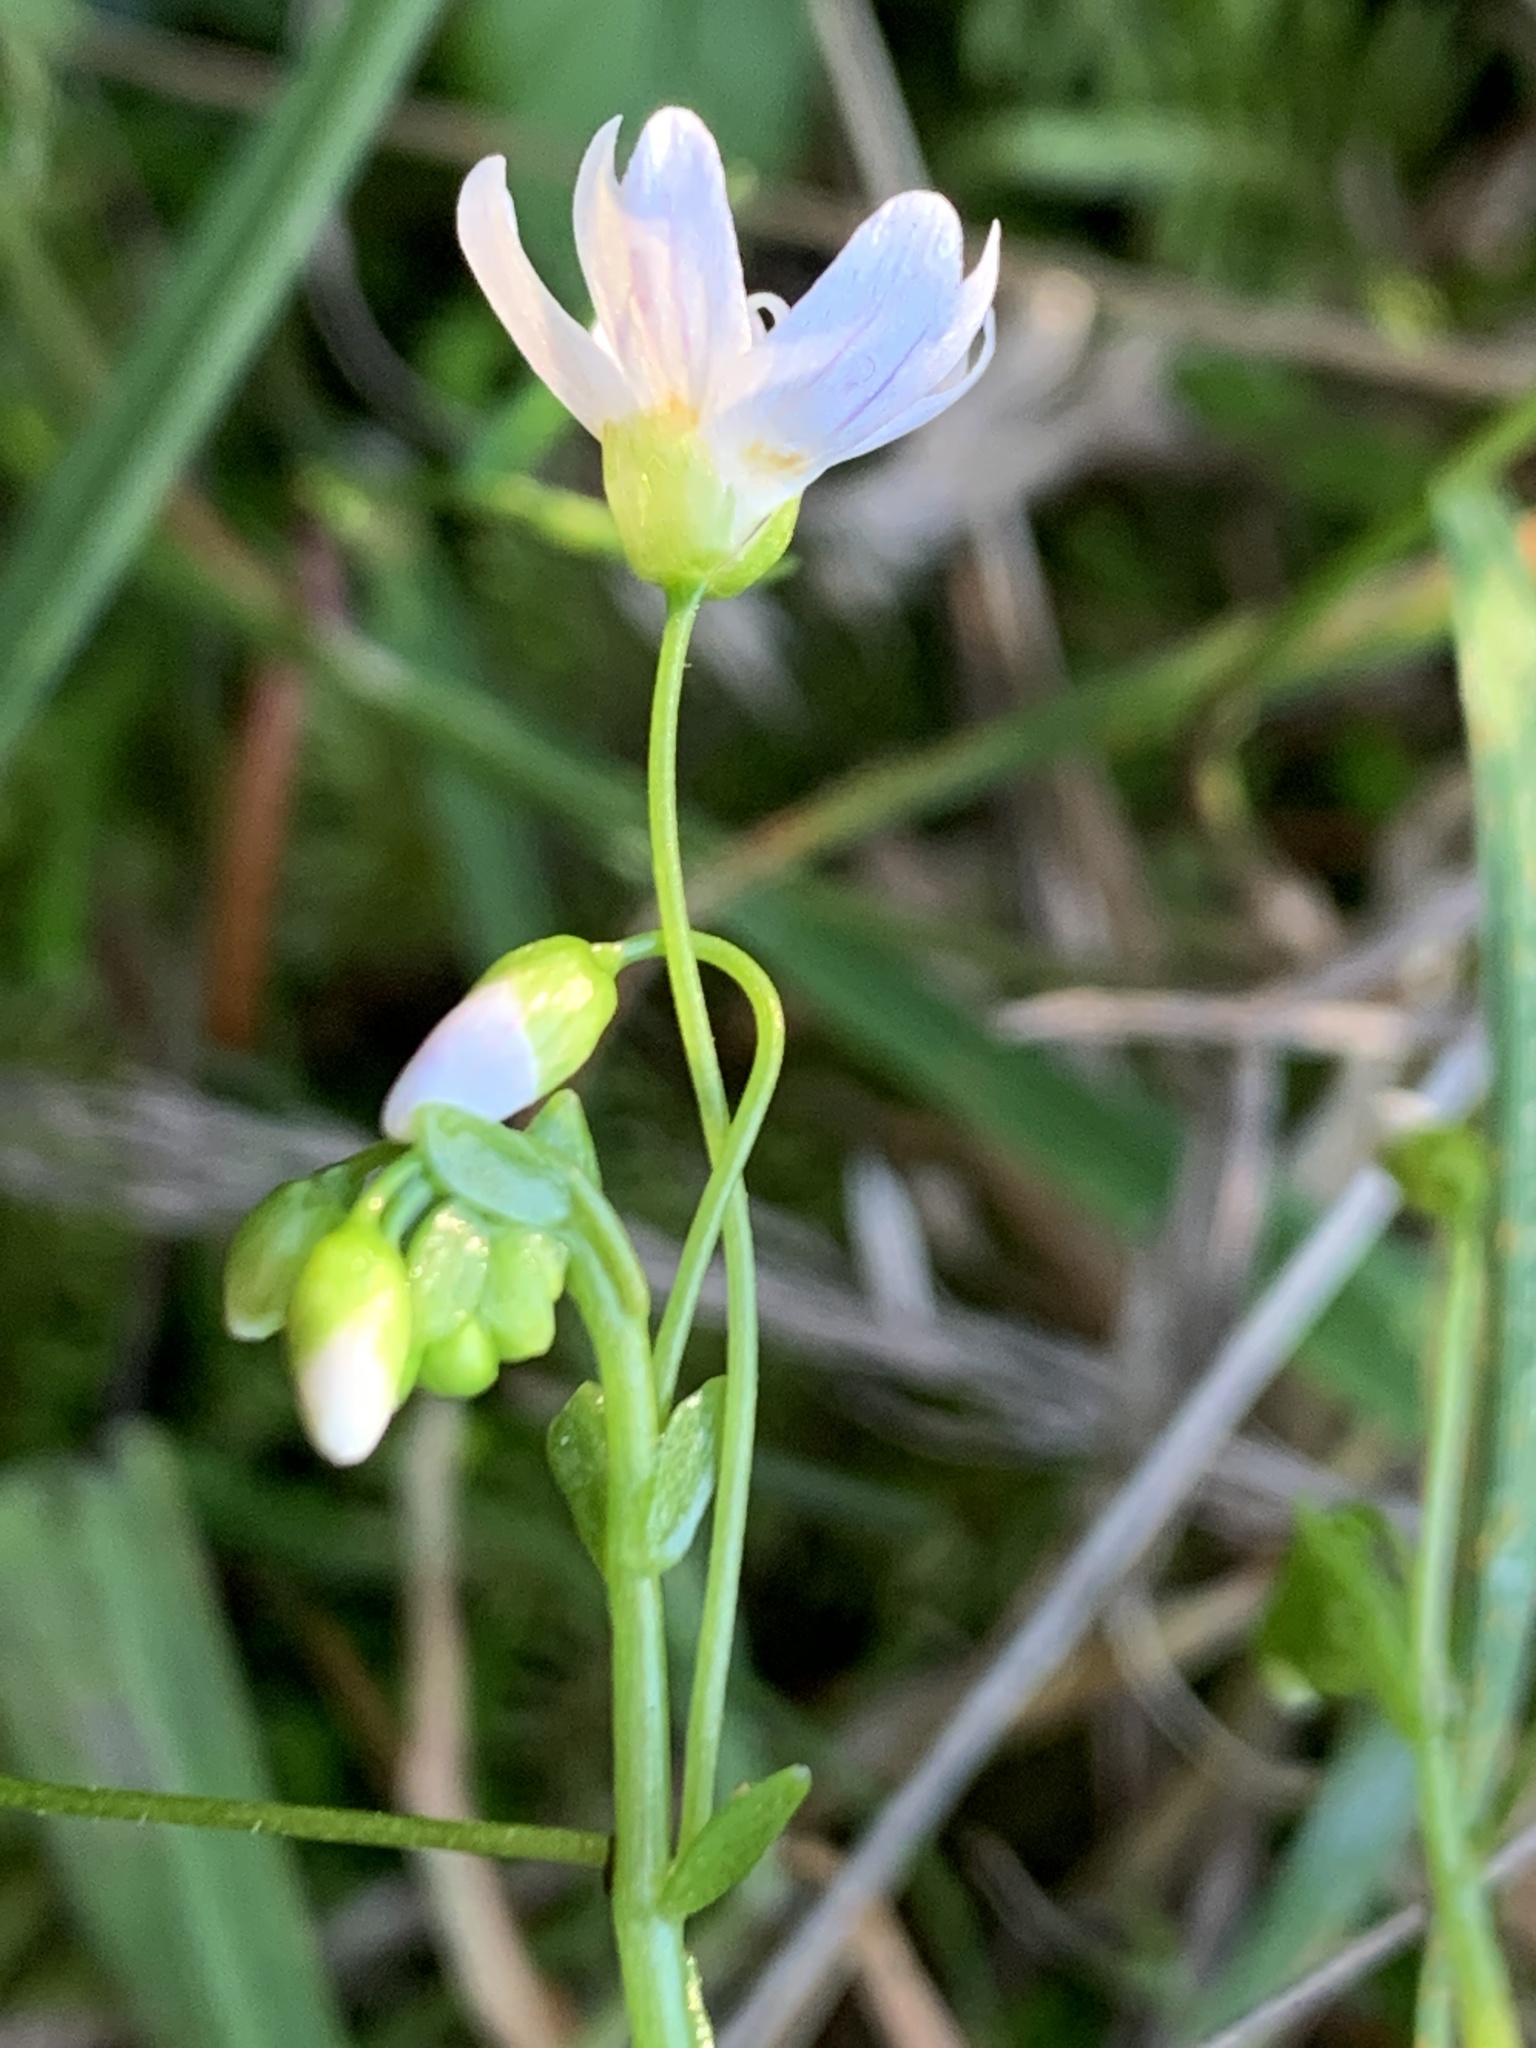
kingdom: Plantae
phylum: Tracheophyta
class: Magnoliopsida
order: Caryophyllales
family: Montiaceae
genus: Claytonia
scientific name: Claytonia sibirica
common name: Pink purslane
